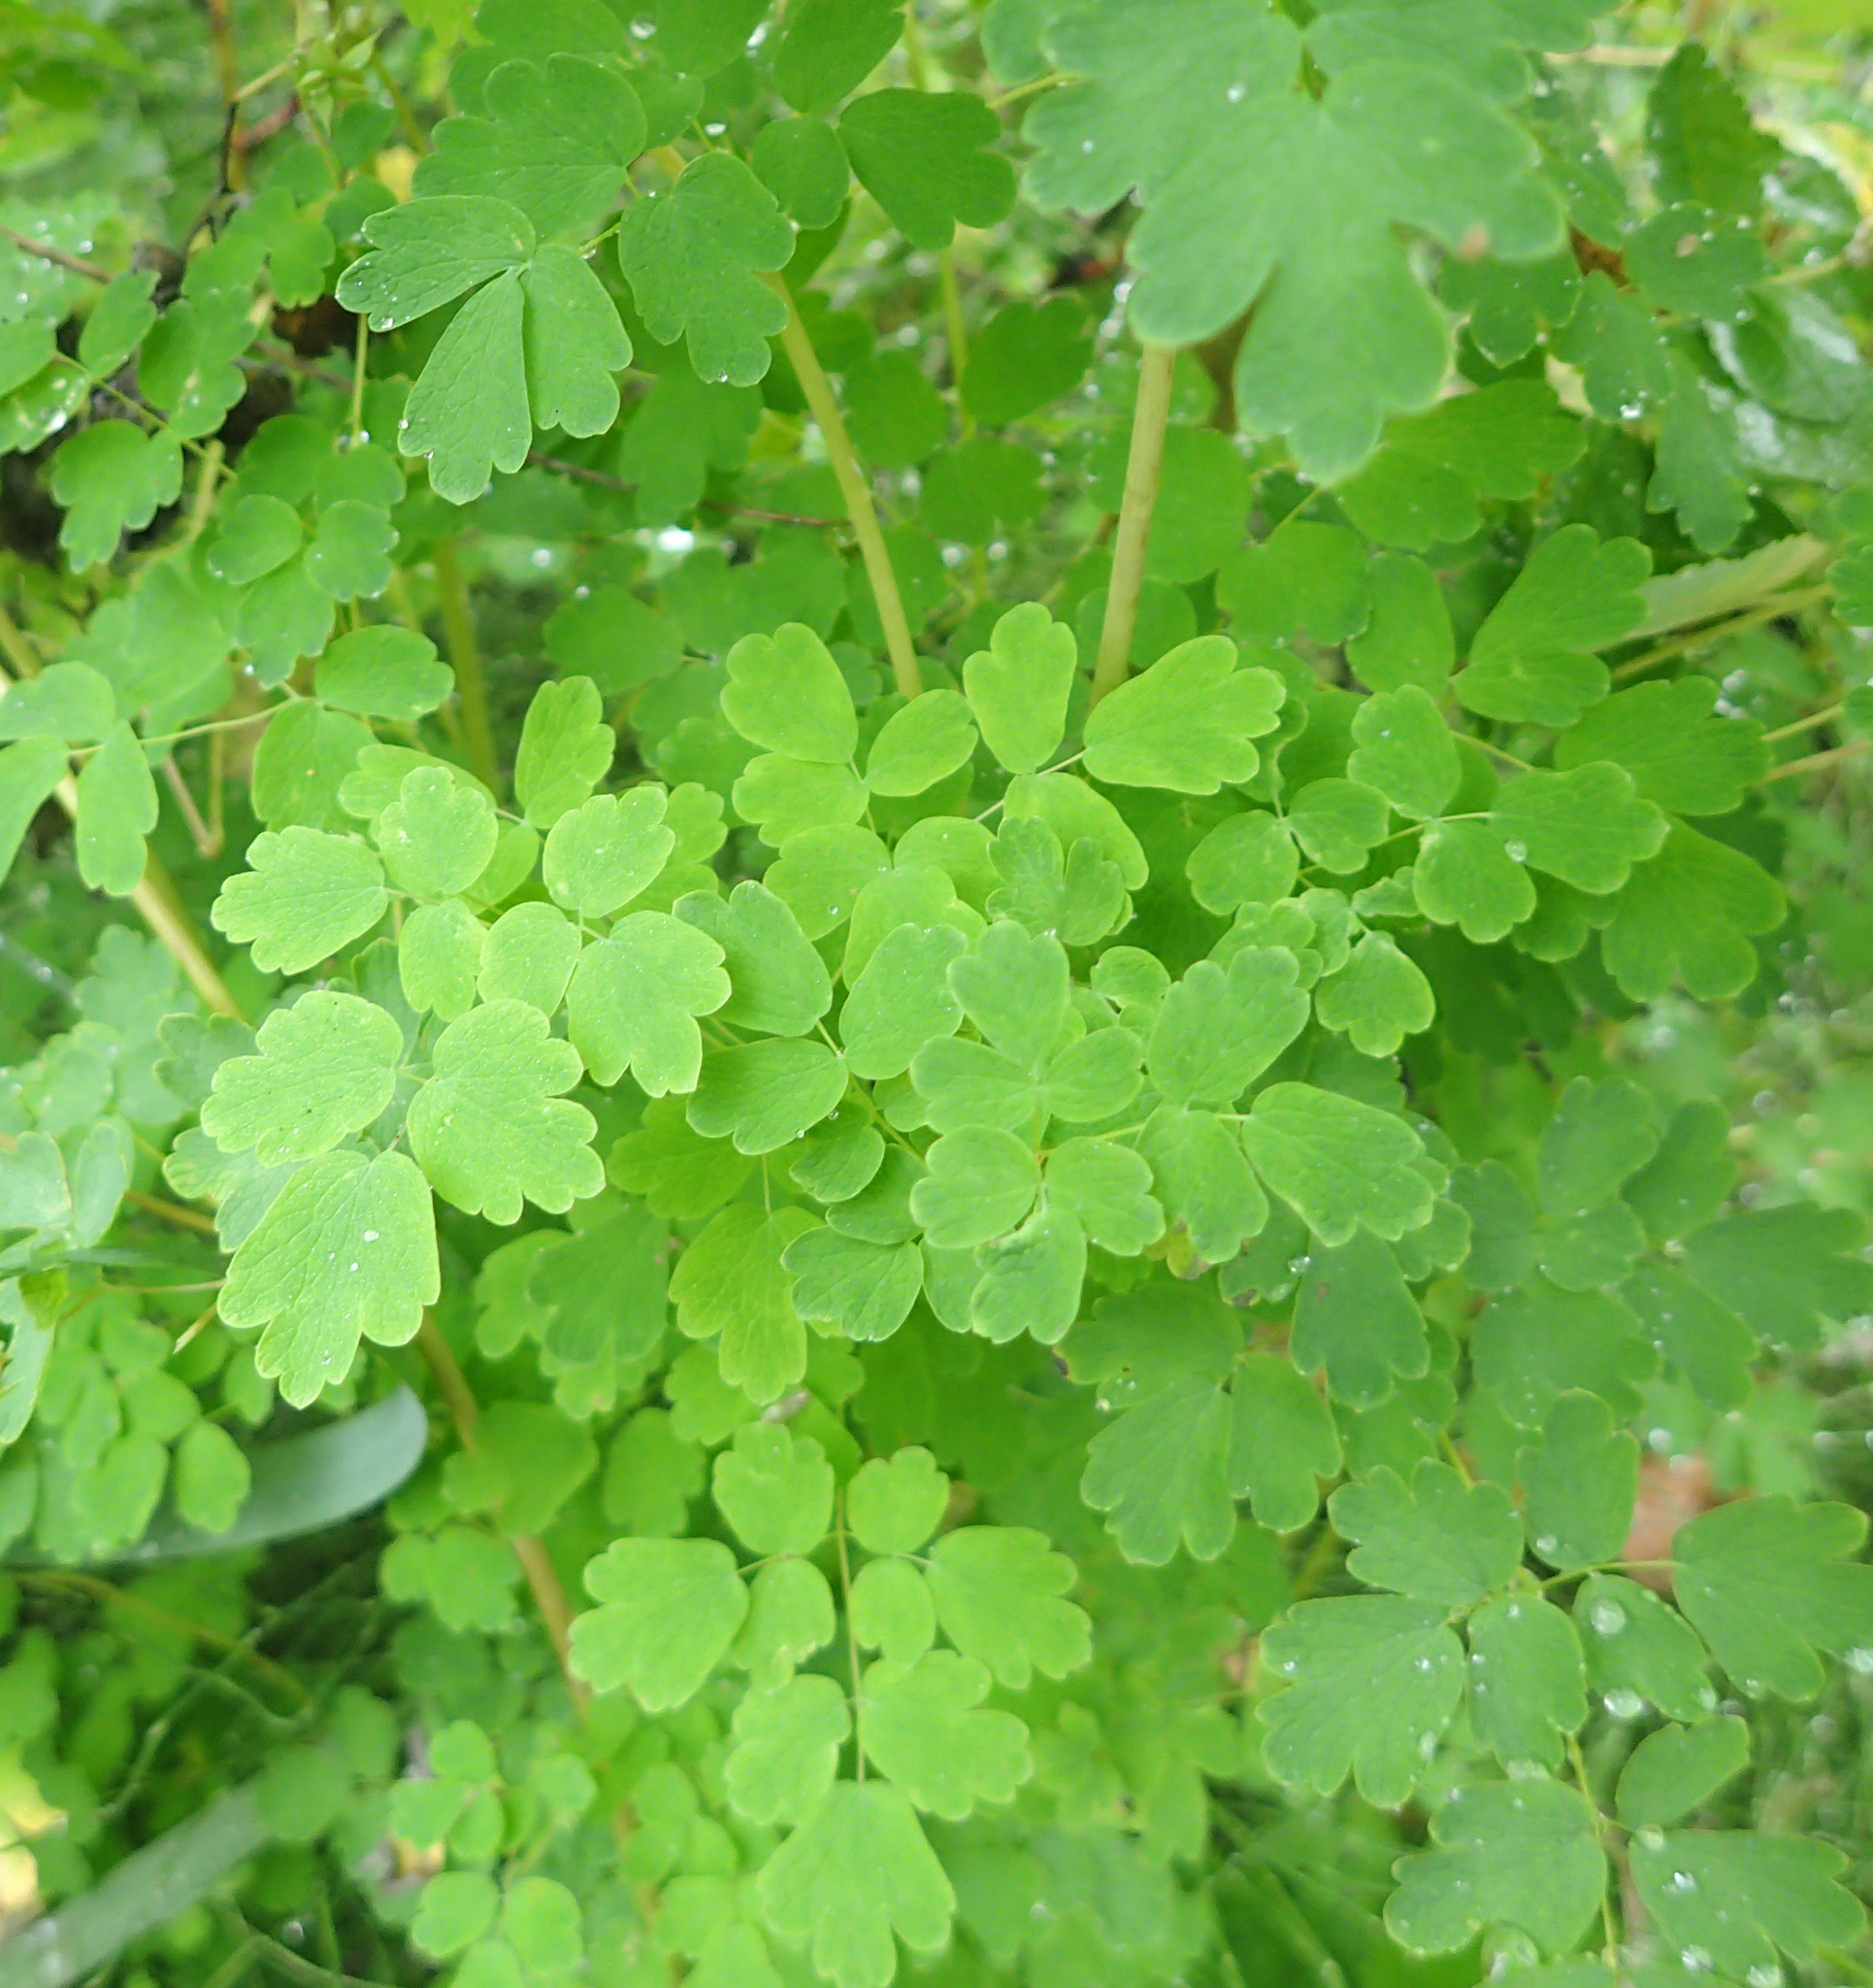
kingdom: Plantae
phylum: Tracheophyta
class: Magnoliopsida
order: Ranunculales
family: Ranunculaceae
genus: Thalictrum
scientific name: Thalictrum sparsiflorum
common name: Mountain meadow-rue
